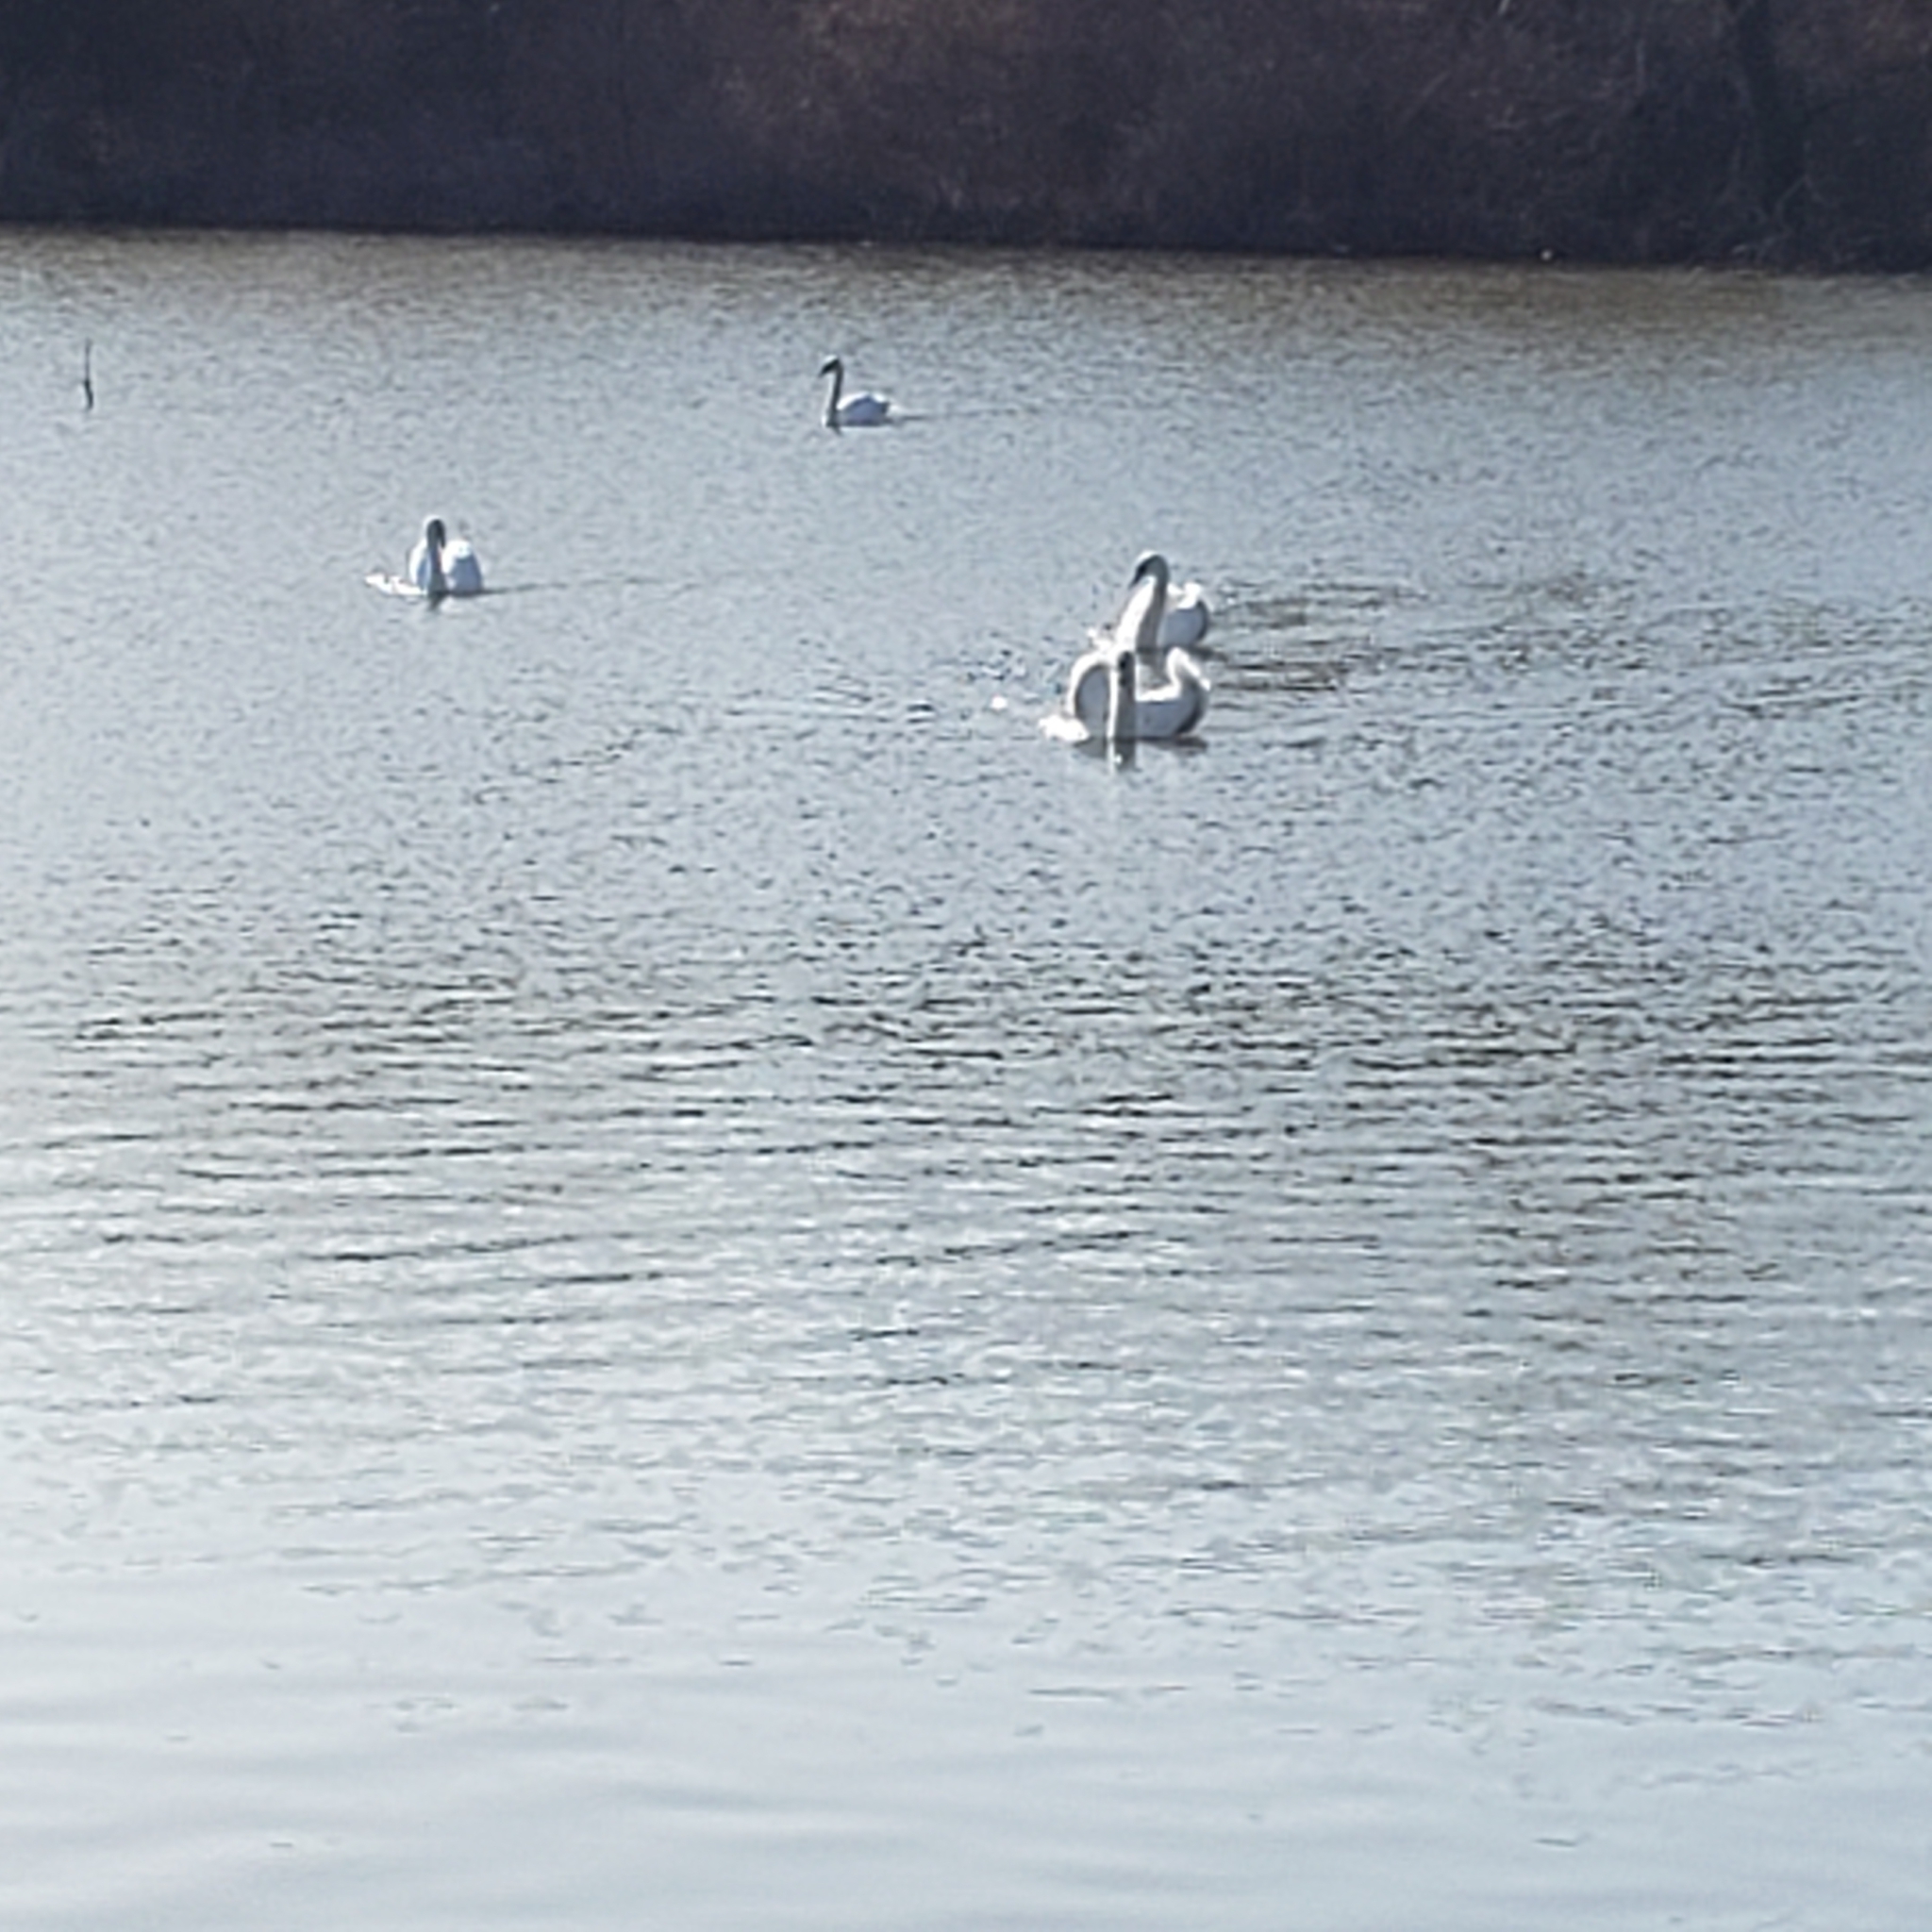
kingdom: Animalia
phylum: Chordata
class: Aves
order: Anseriformes
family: Anatidae
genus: Cygnus
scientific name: Cygnus olor
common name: Mute swan
